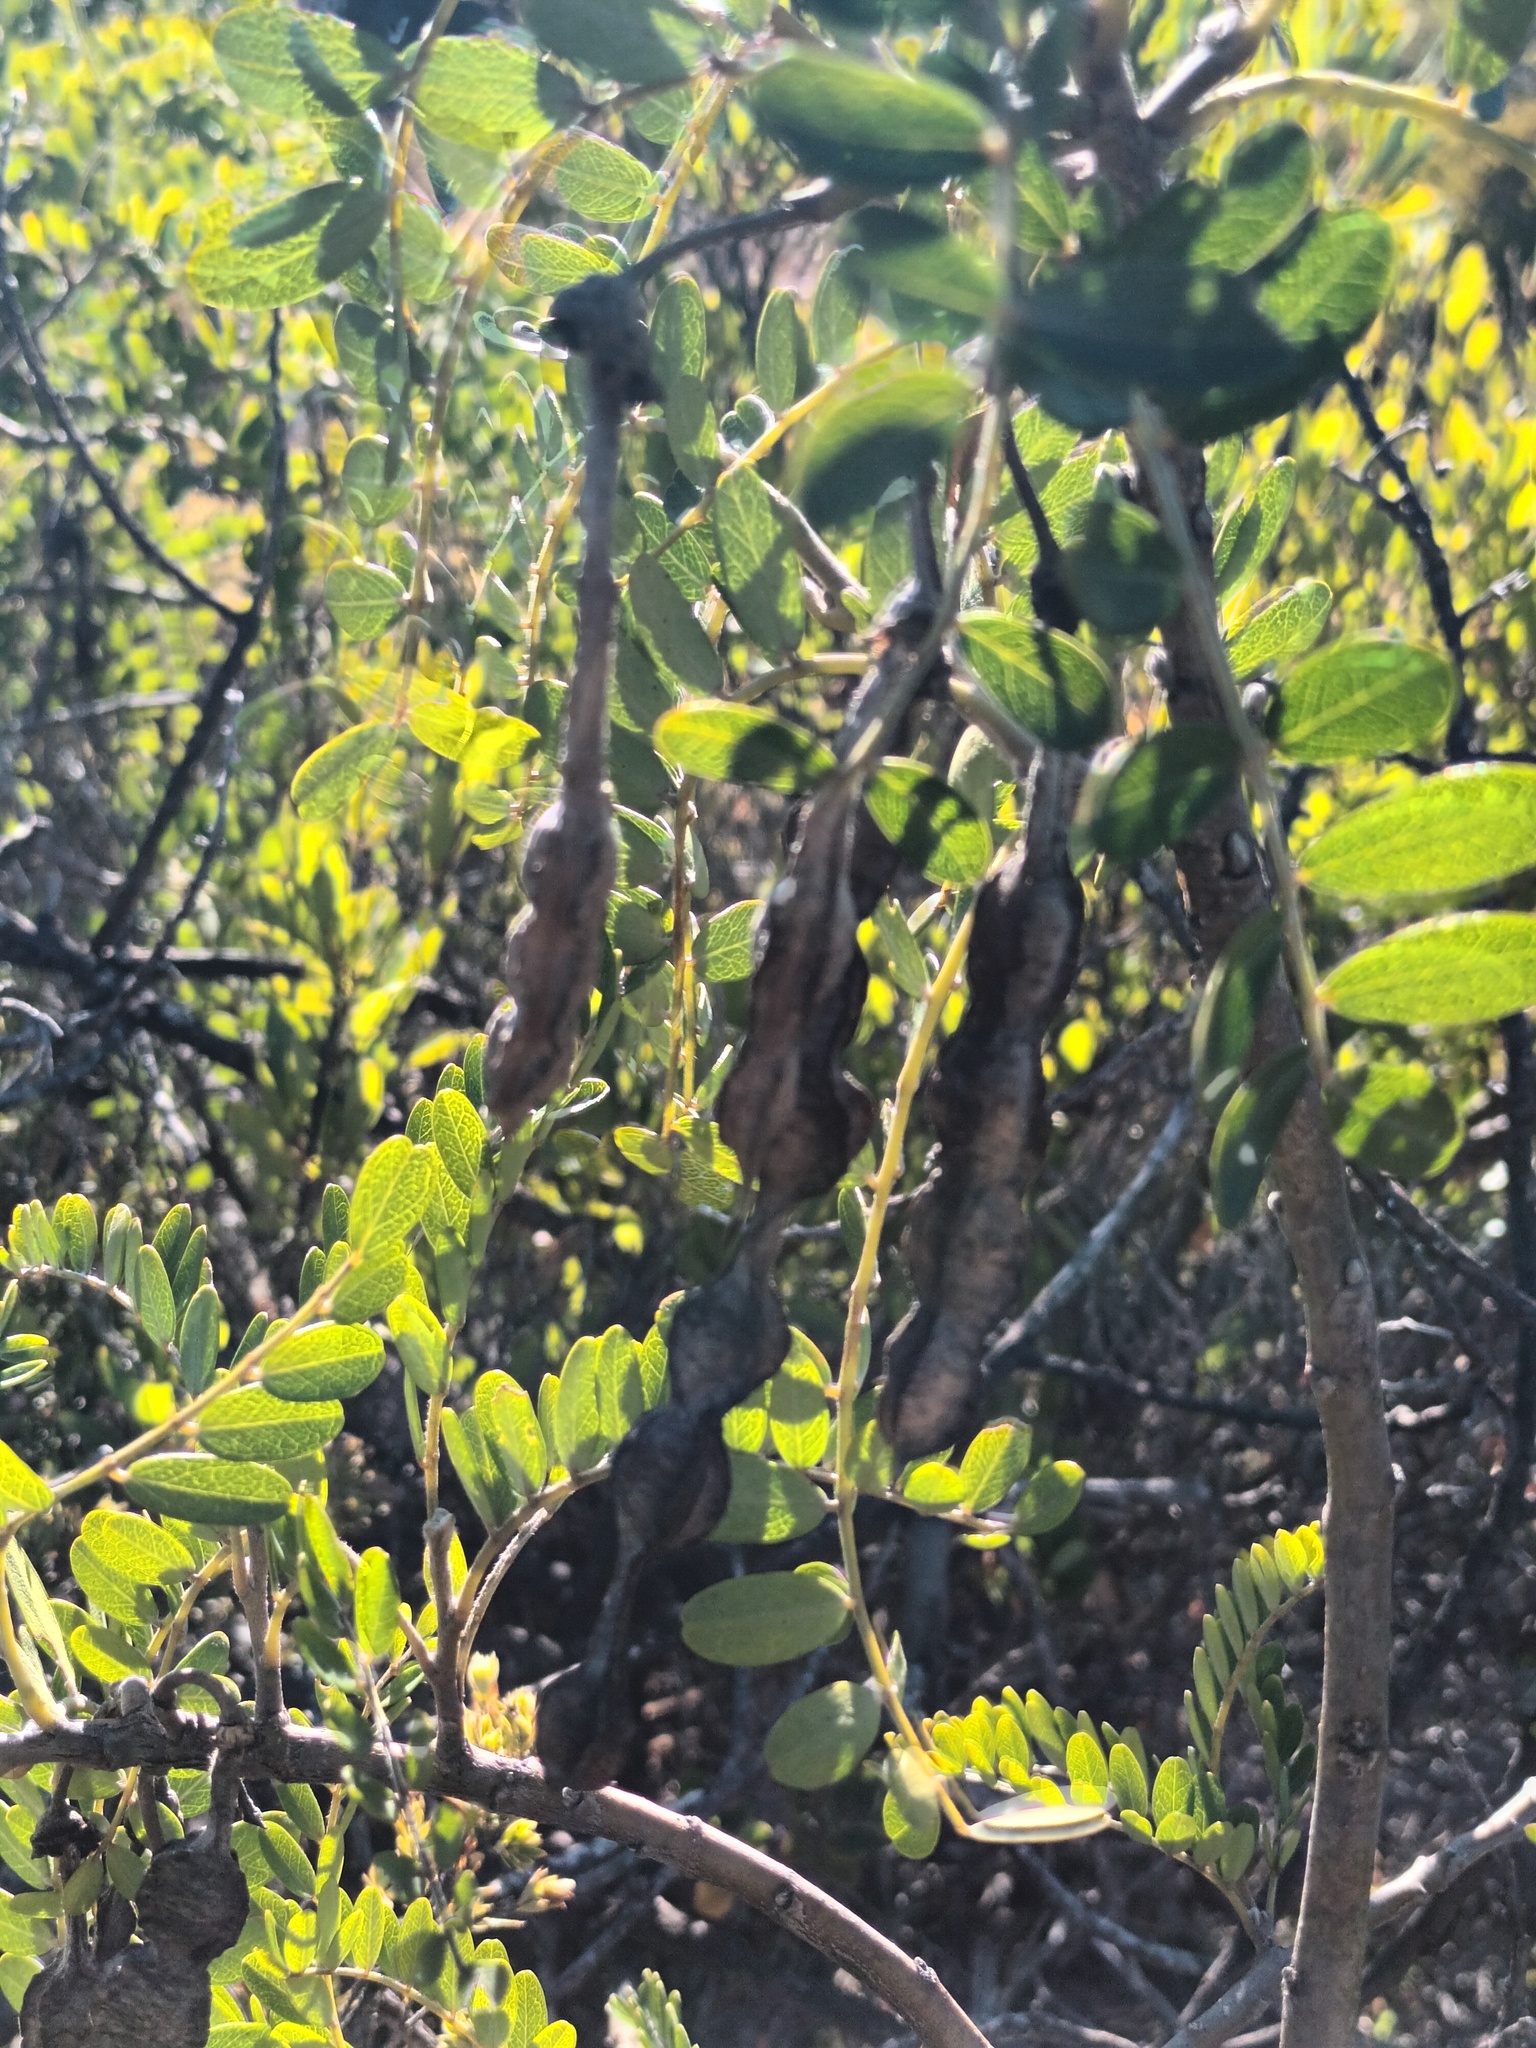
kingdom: Plantae
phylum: Tracheophyta
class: Magnoliopsida
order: Fabales
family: Fabaceae
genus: Sophora
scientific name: Sophora chrysophylla
